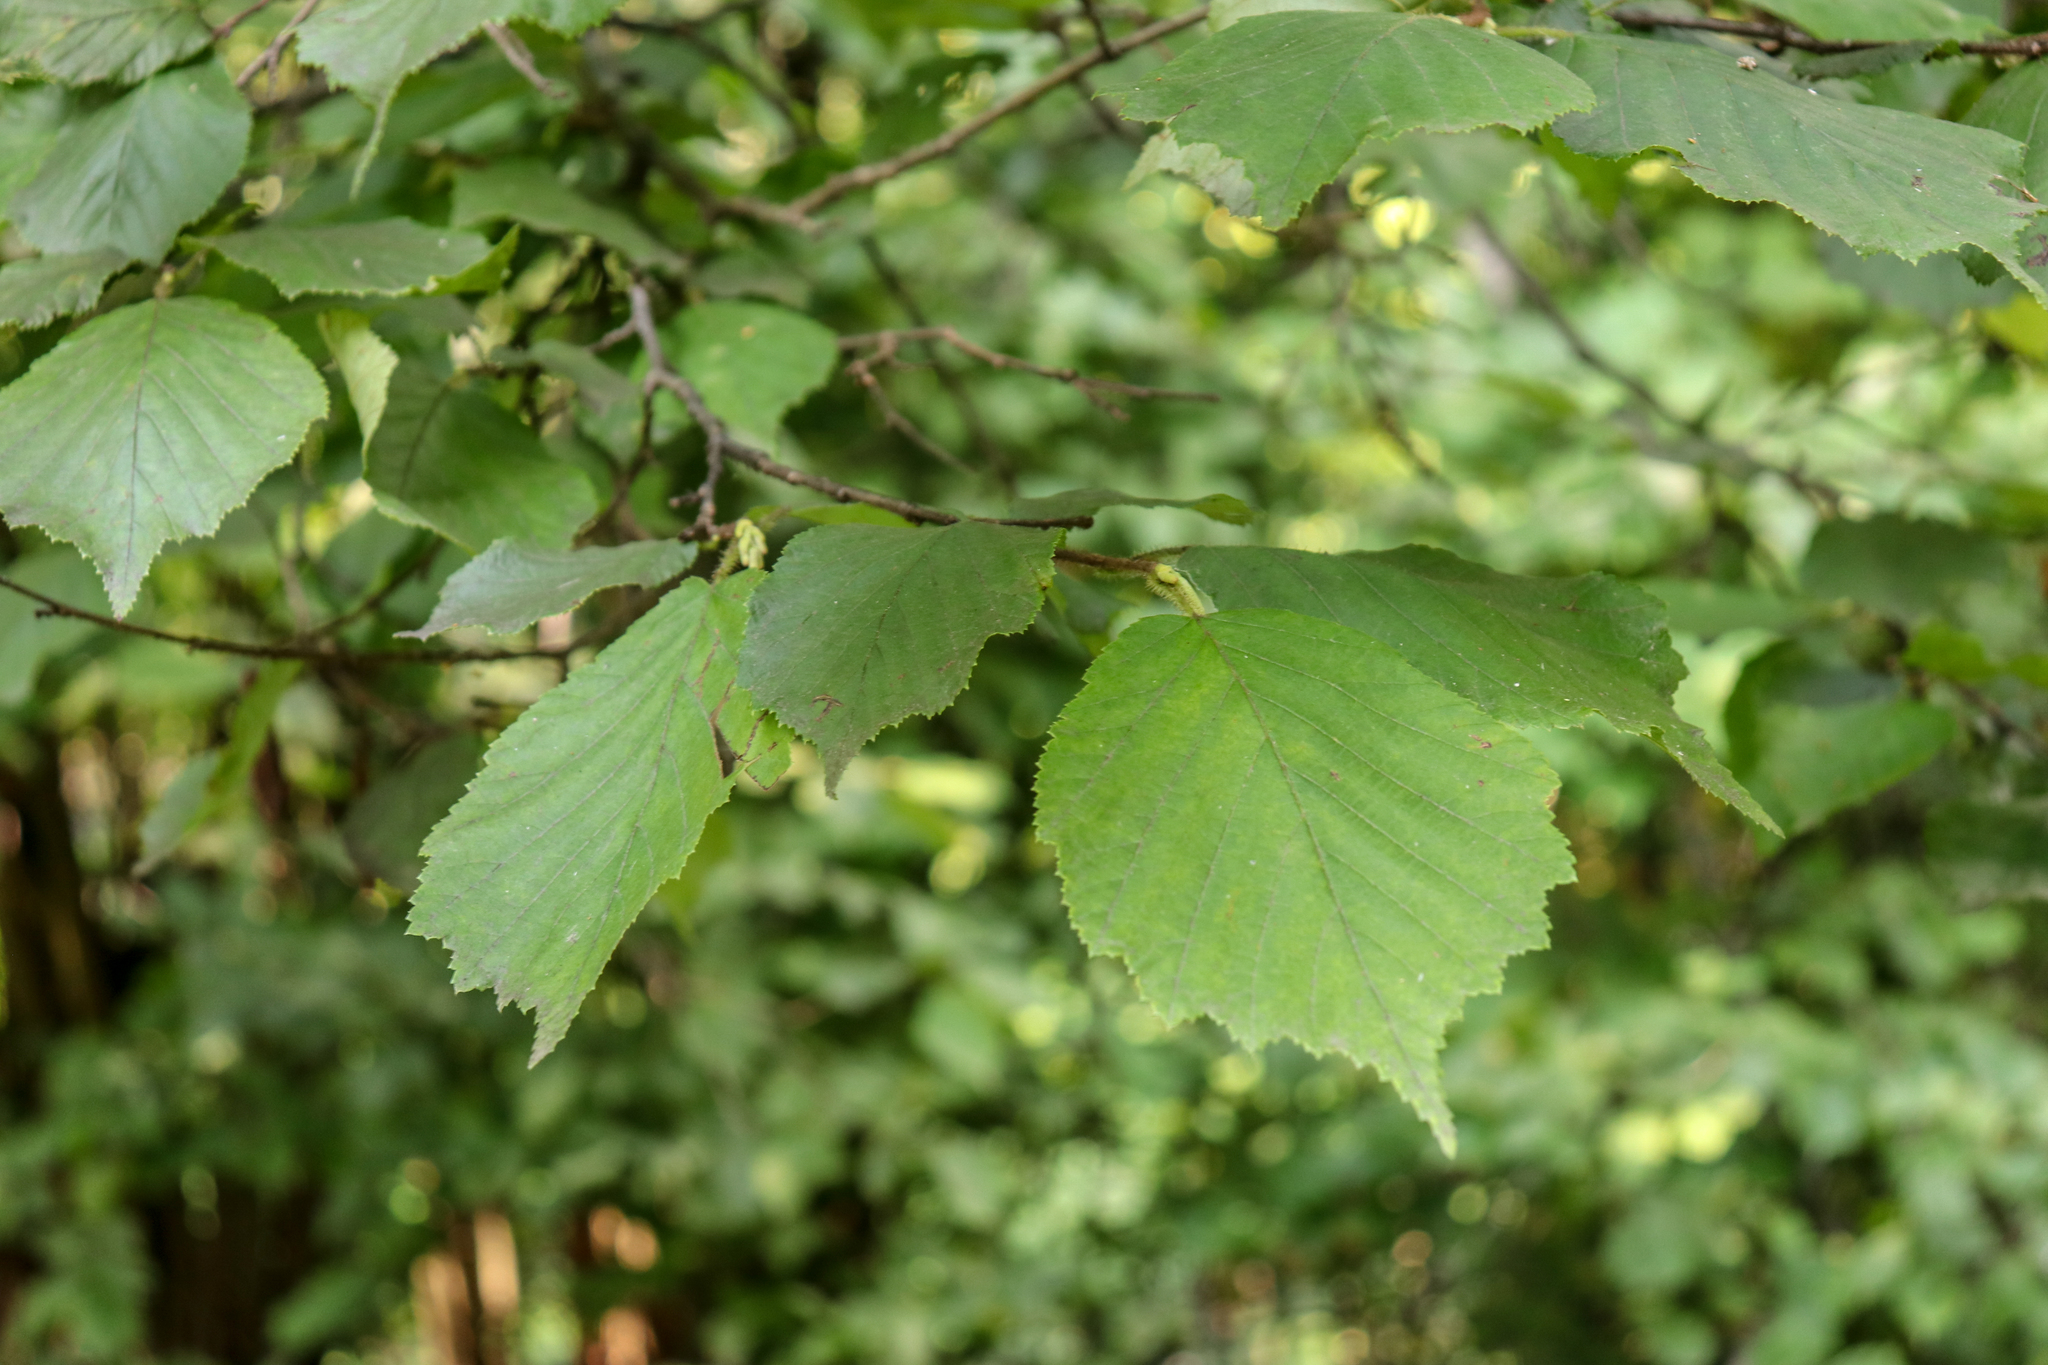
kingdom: Plantae
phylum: Tracheophyta
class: Magnoliopsida
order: Fagales
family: Betulaceae
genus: Corylus
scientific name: Corylus avellana
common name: European hazel
